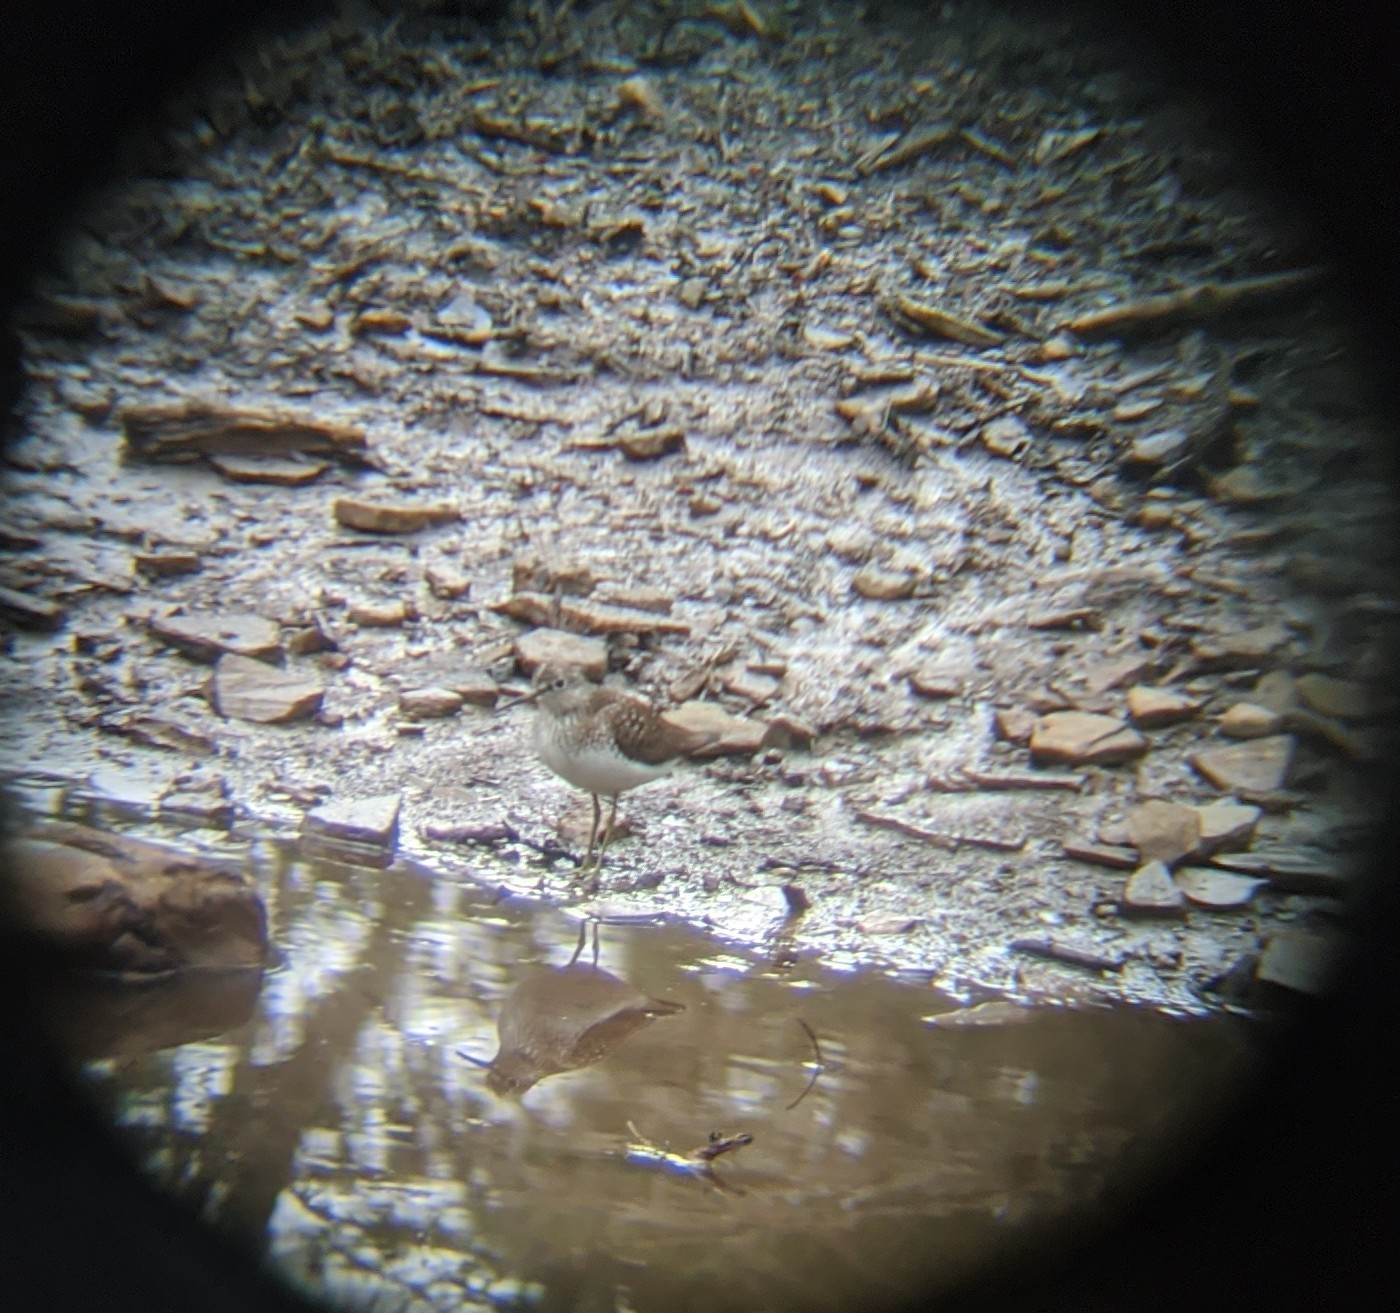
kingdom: Animalia
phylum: Chordata
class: Aves
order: Charadriiformes
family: Scolopacidae
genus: Tringa
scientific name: Tringa solitaria
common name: Solitary sandpiper
